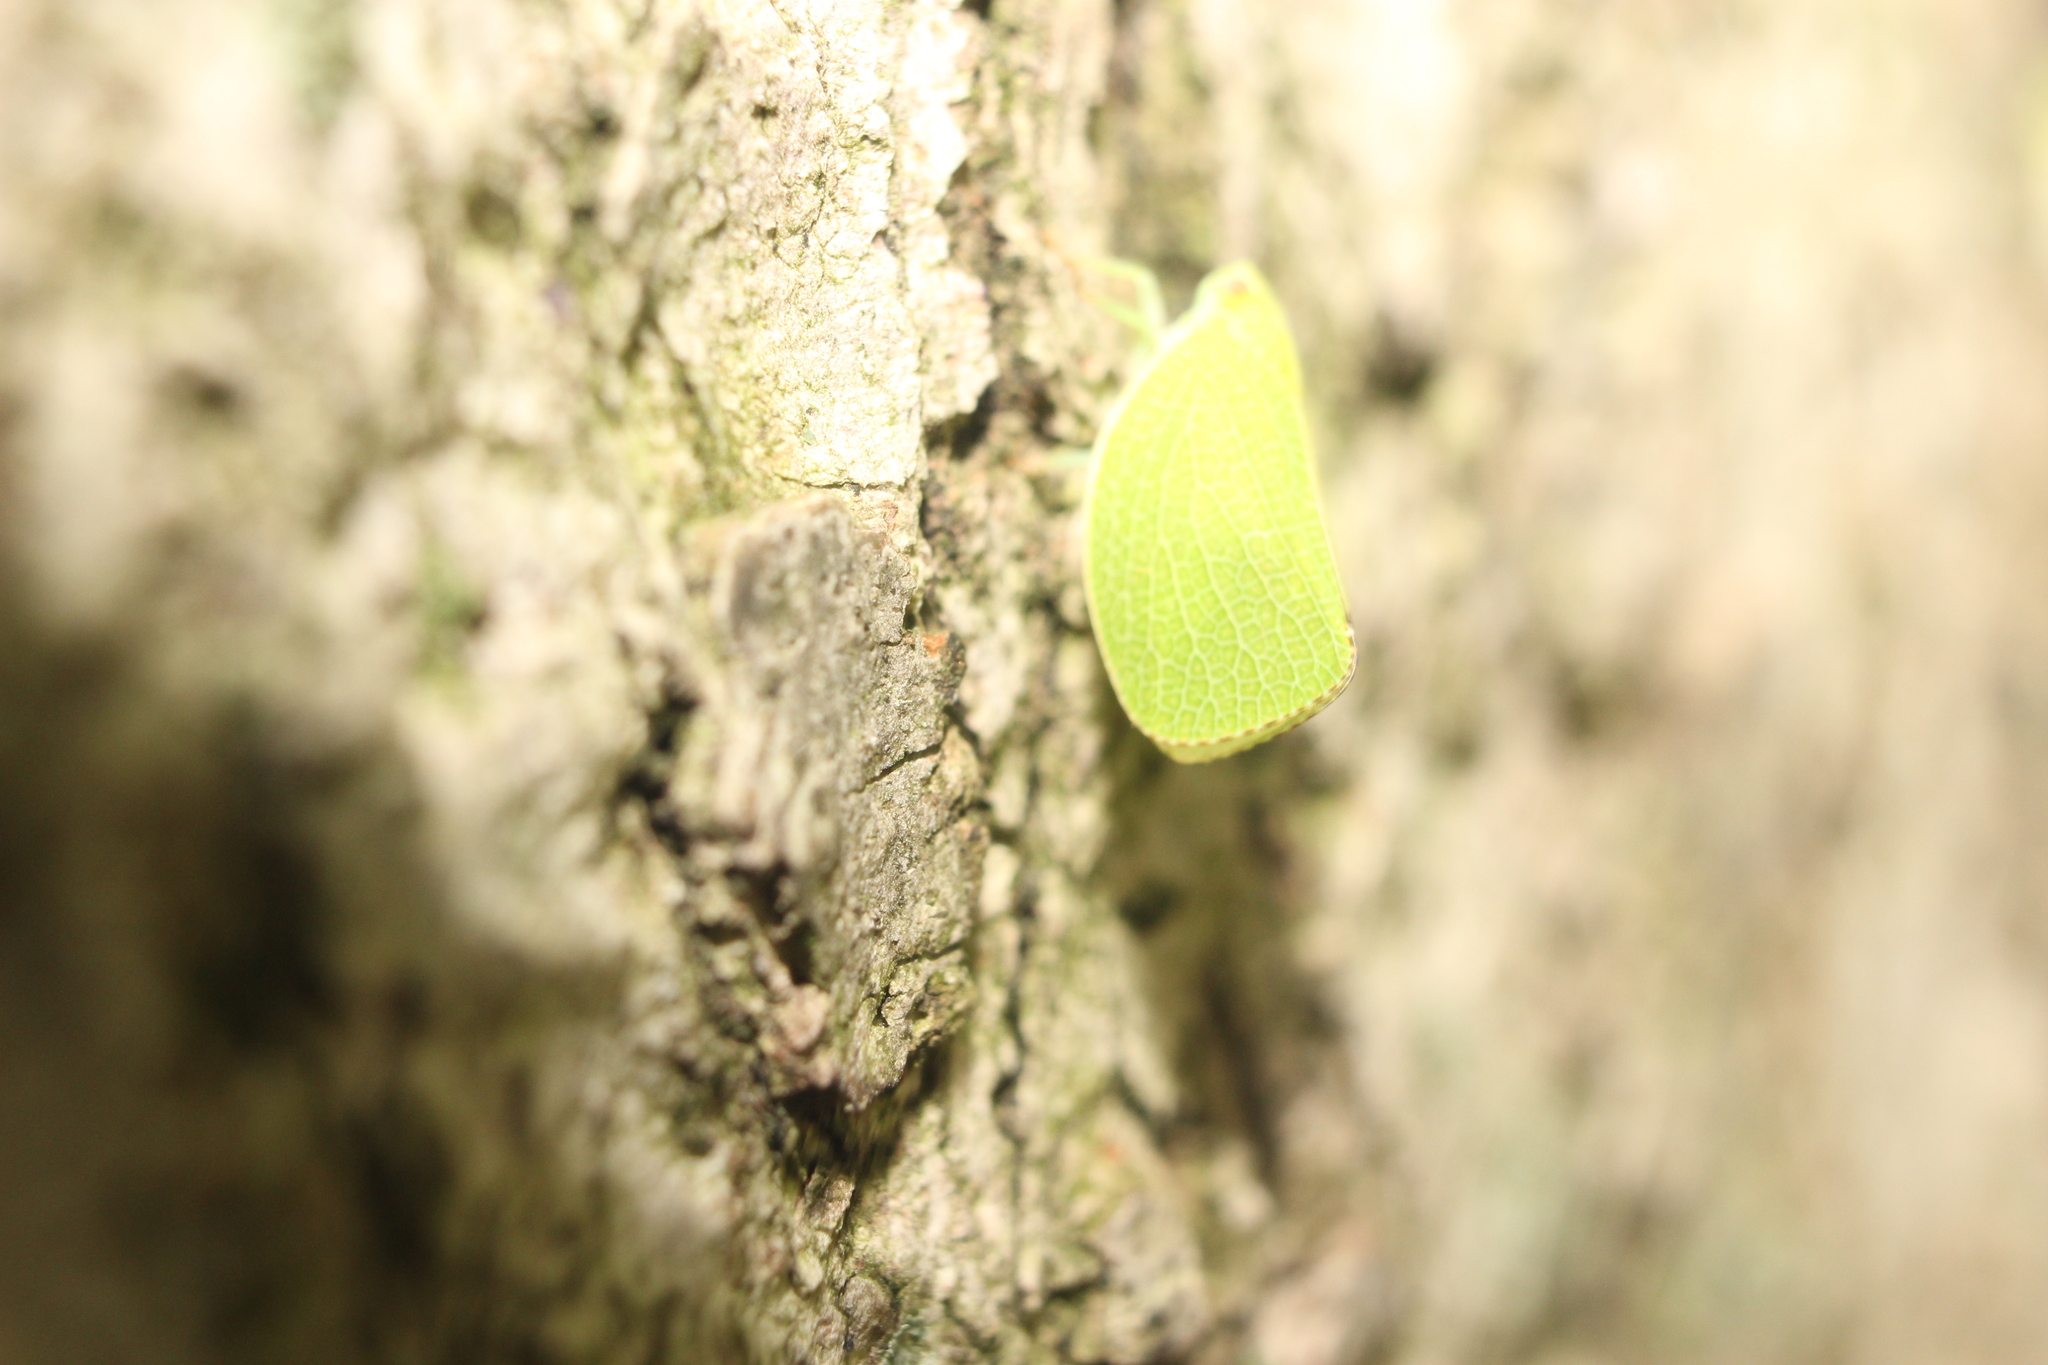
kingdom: Animalia
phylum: Arthropoda
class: Insecta
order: Hemiptera
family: Acanaloniidae
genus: Acanalonia
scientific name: Acanalonia conica
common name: Green cone-headed planthopper
